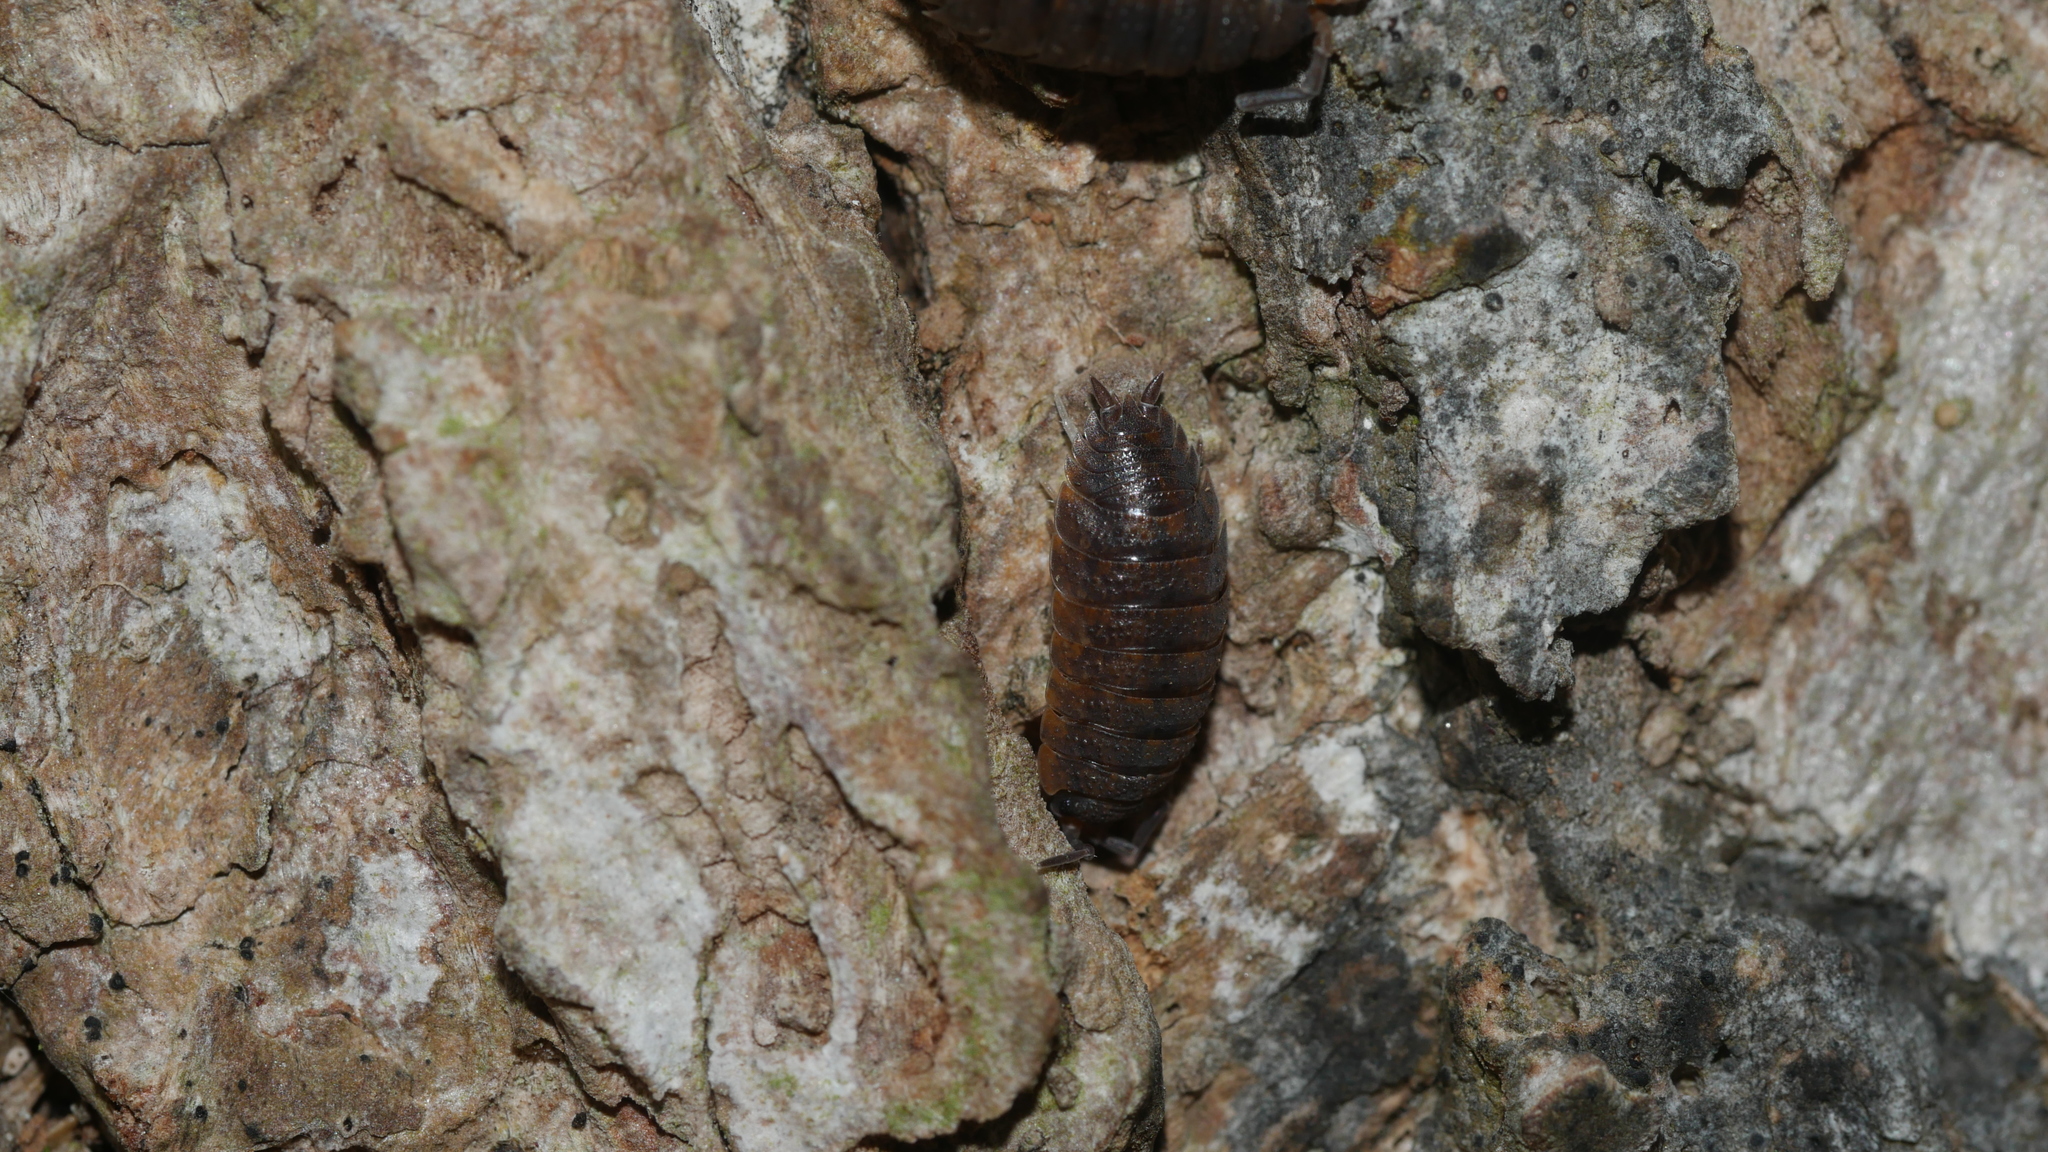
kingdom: Animalia
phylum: Arthropoda
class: Malacostraca
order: Isopoda
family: Porcellionidae
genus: Porcellio
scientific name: Porcellio scaber
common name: Common rough woodlouse
